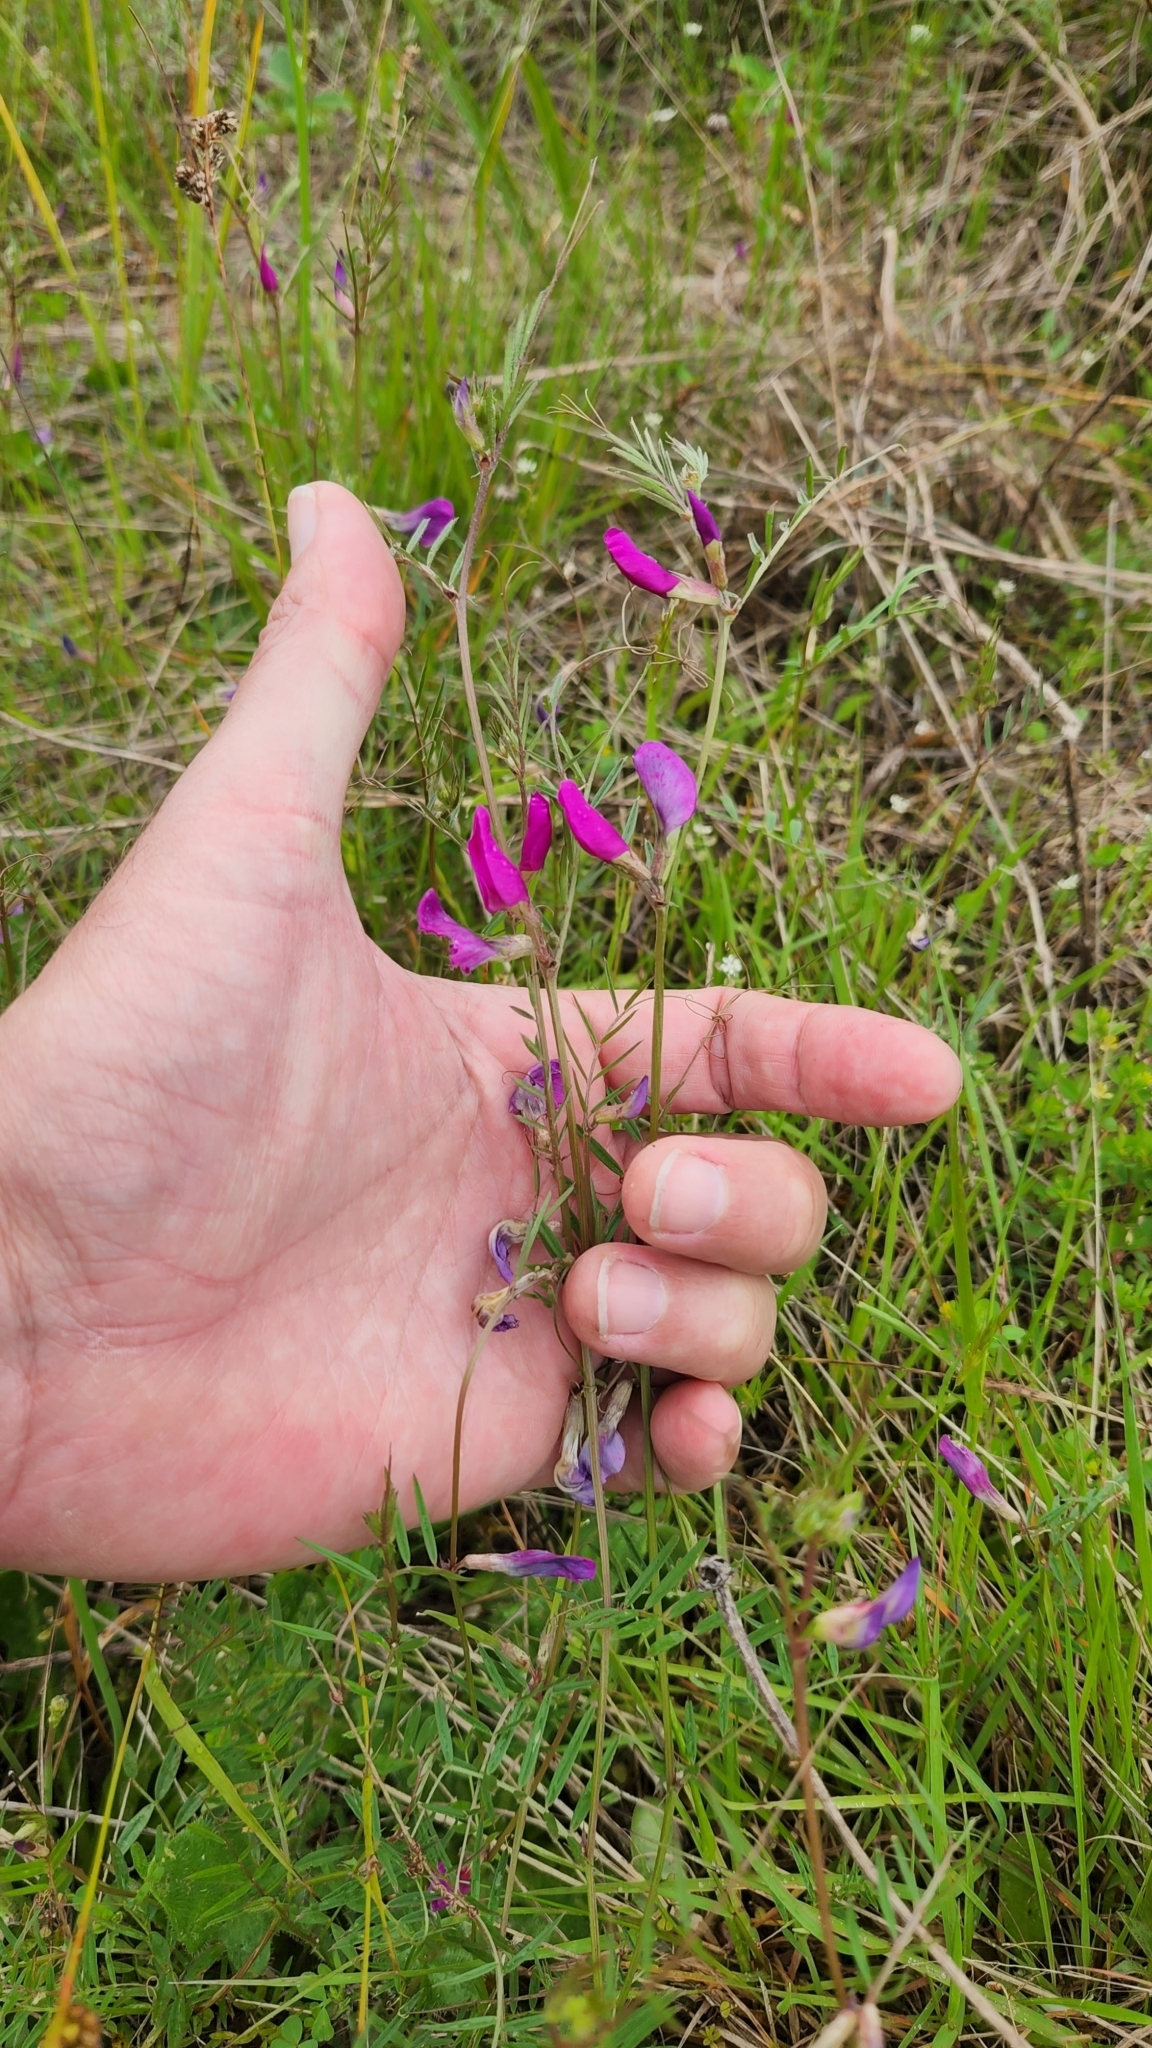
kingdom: Plantae
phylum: Tracheophyta
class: Magnoliopsida
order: Fabales
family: Fabaceae
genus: Vicia
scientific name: Vicia sativa
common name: Garden vetch
